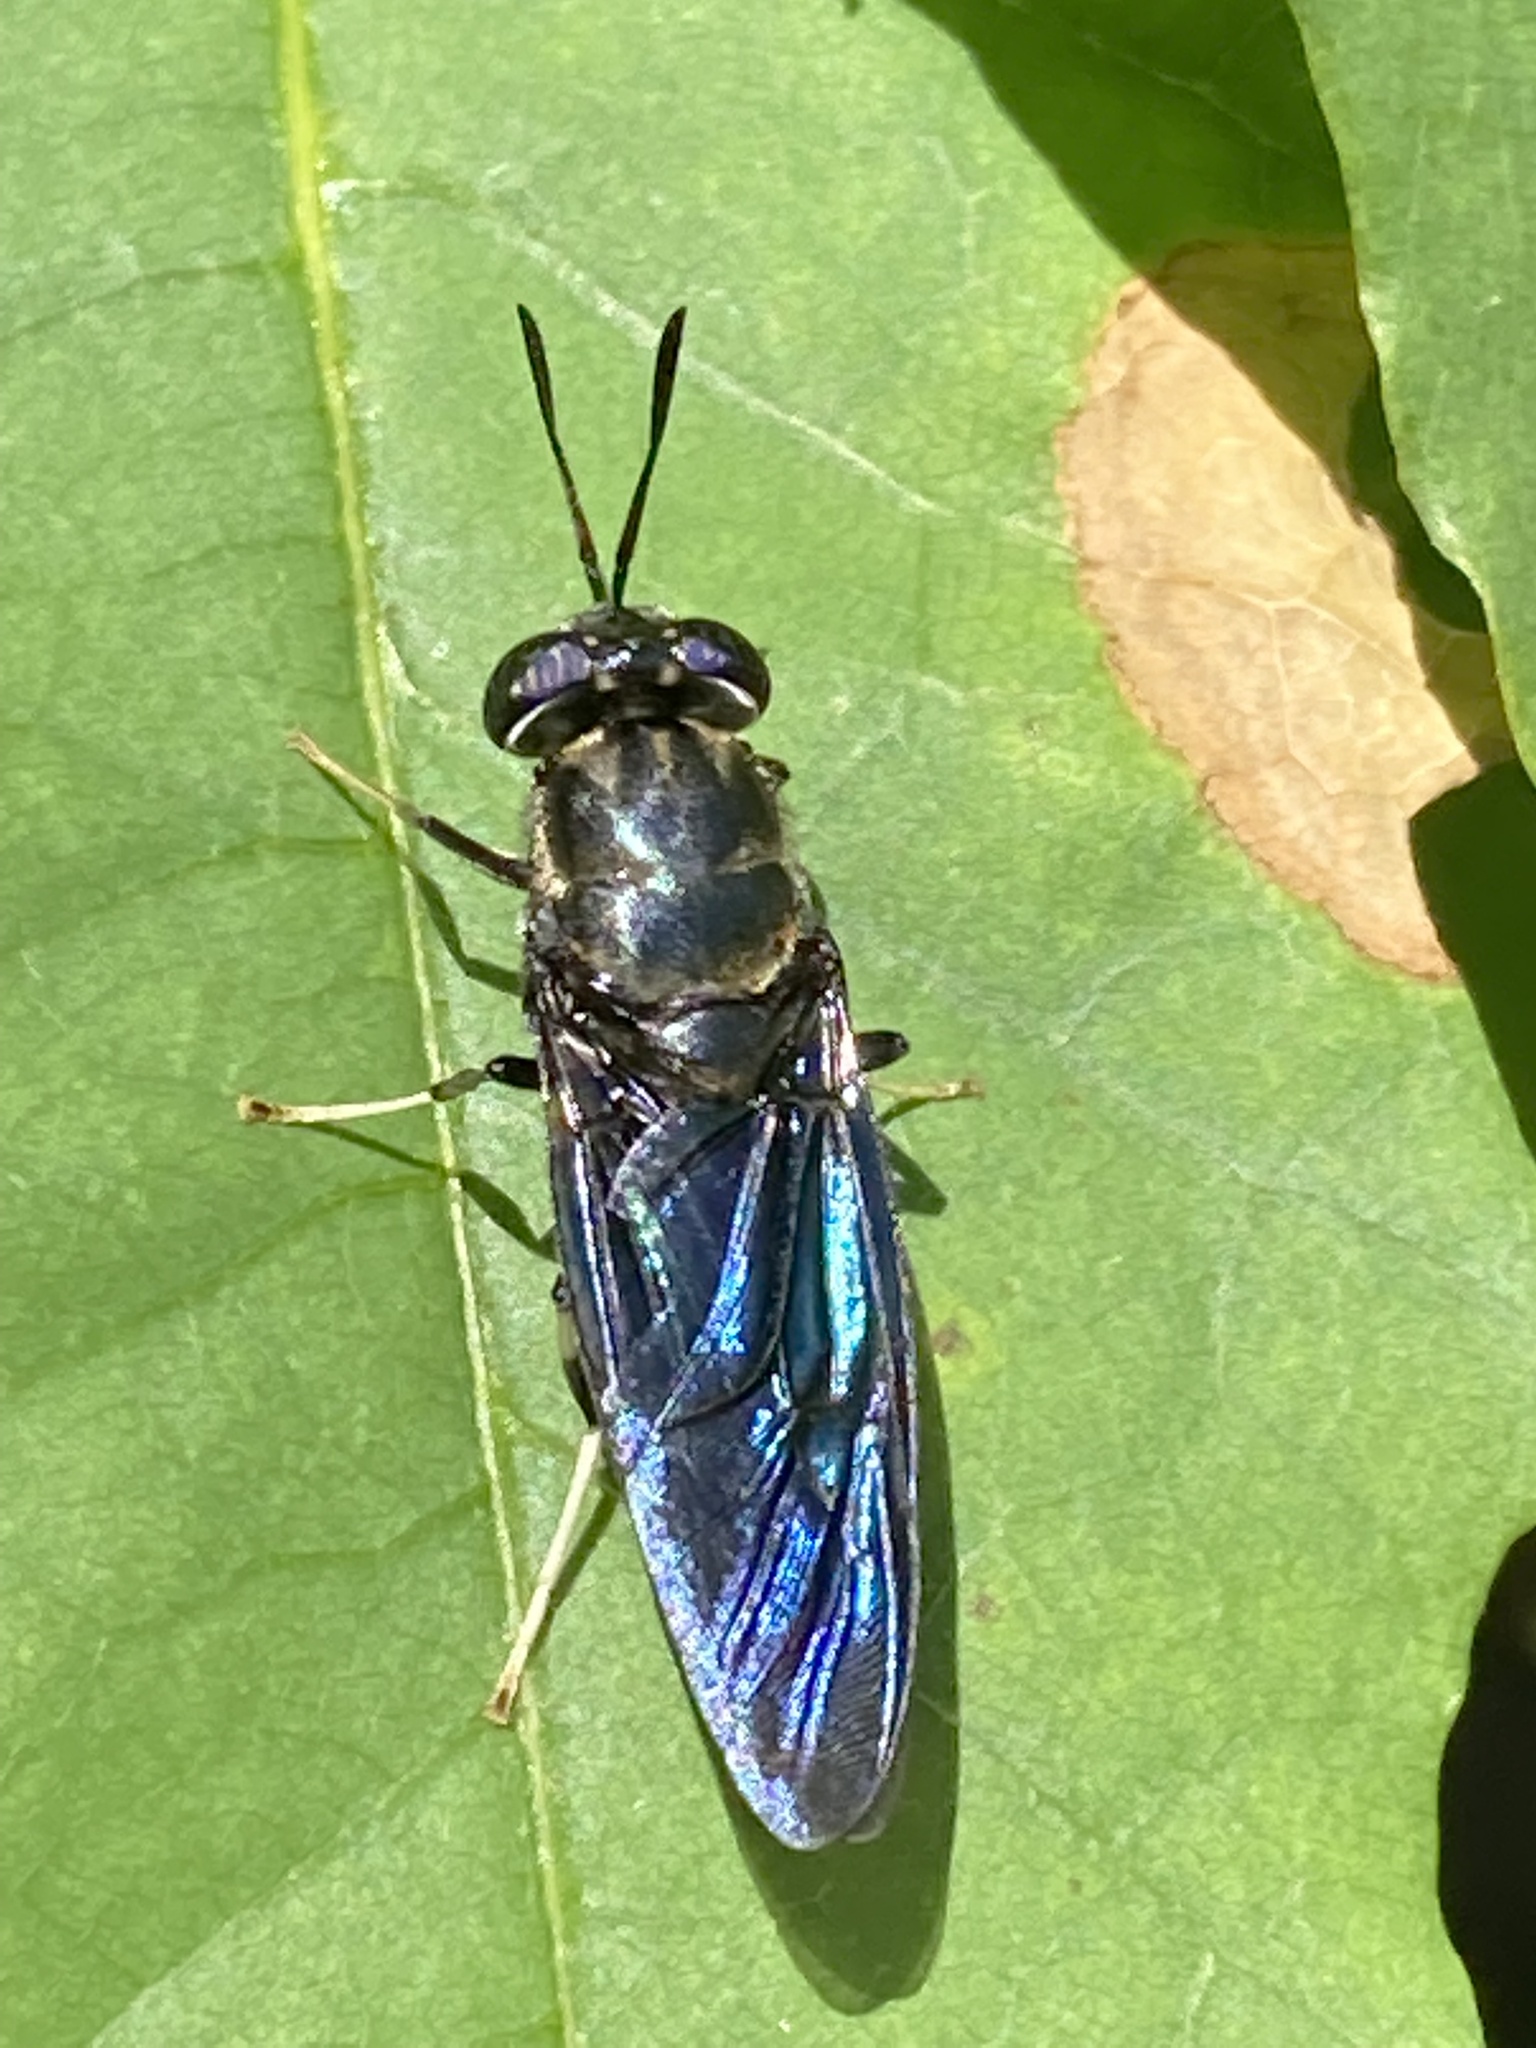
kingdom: Animalia
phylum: Arthropoda
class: Insecta
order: Diptera
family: Stratiomyidae
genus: Hermetia
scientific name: Hermetia illucens
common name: Black soldier fly
